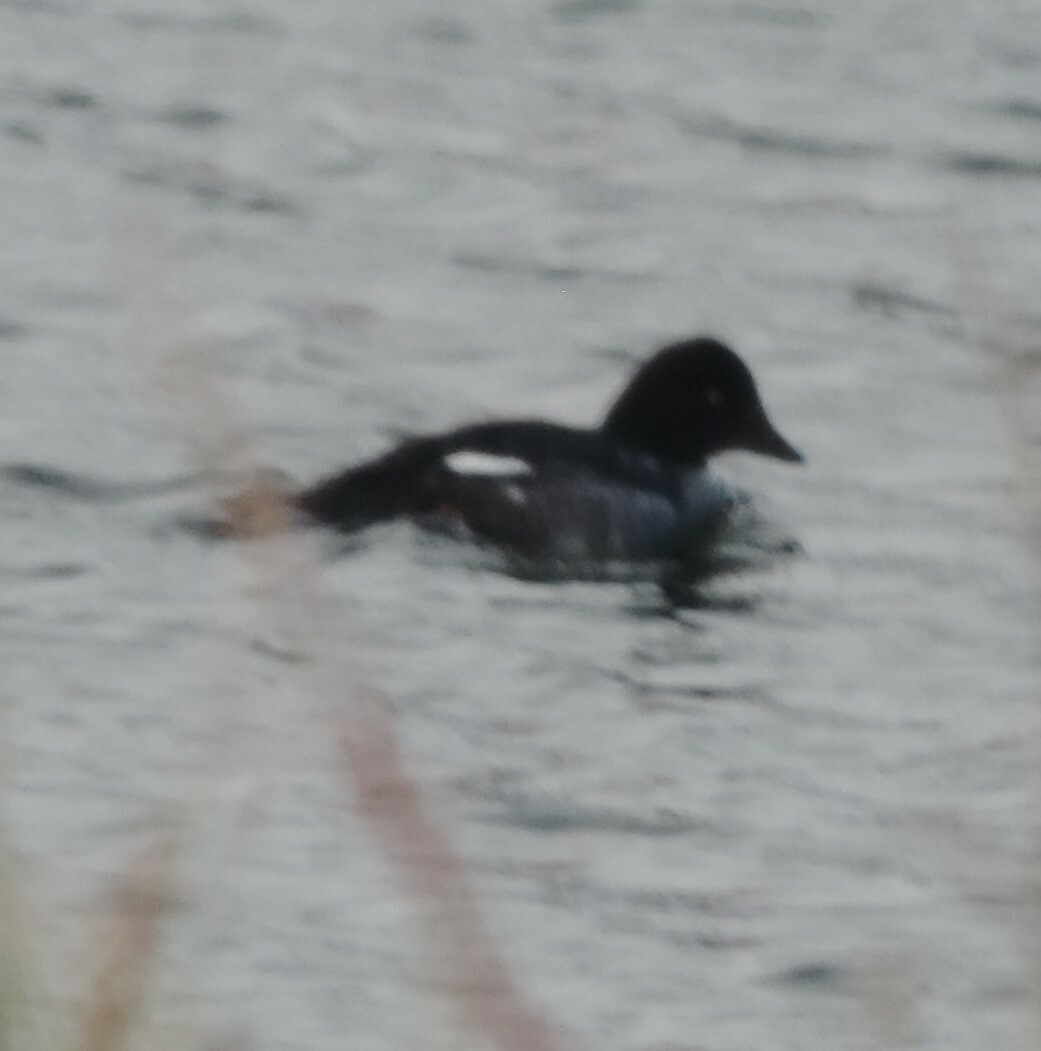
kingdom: Animalia
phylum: Chordata
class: Aves
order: Anseriformes
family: Anatidae
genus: Bucephala
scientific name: Bucephala clangula
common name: Common goldeneye
